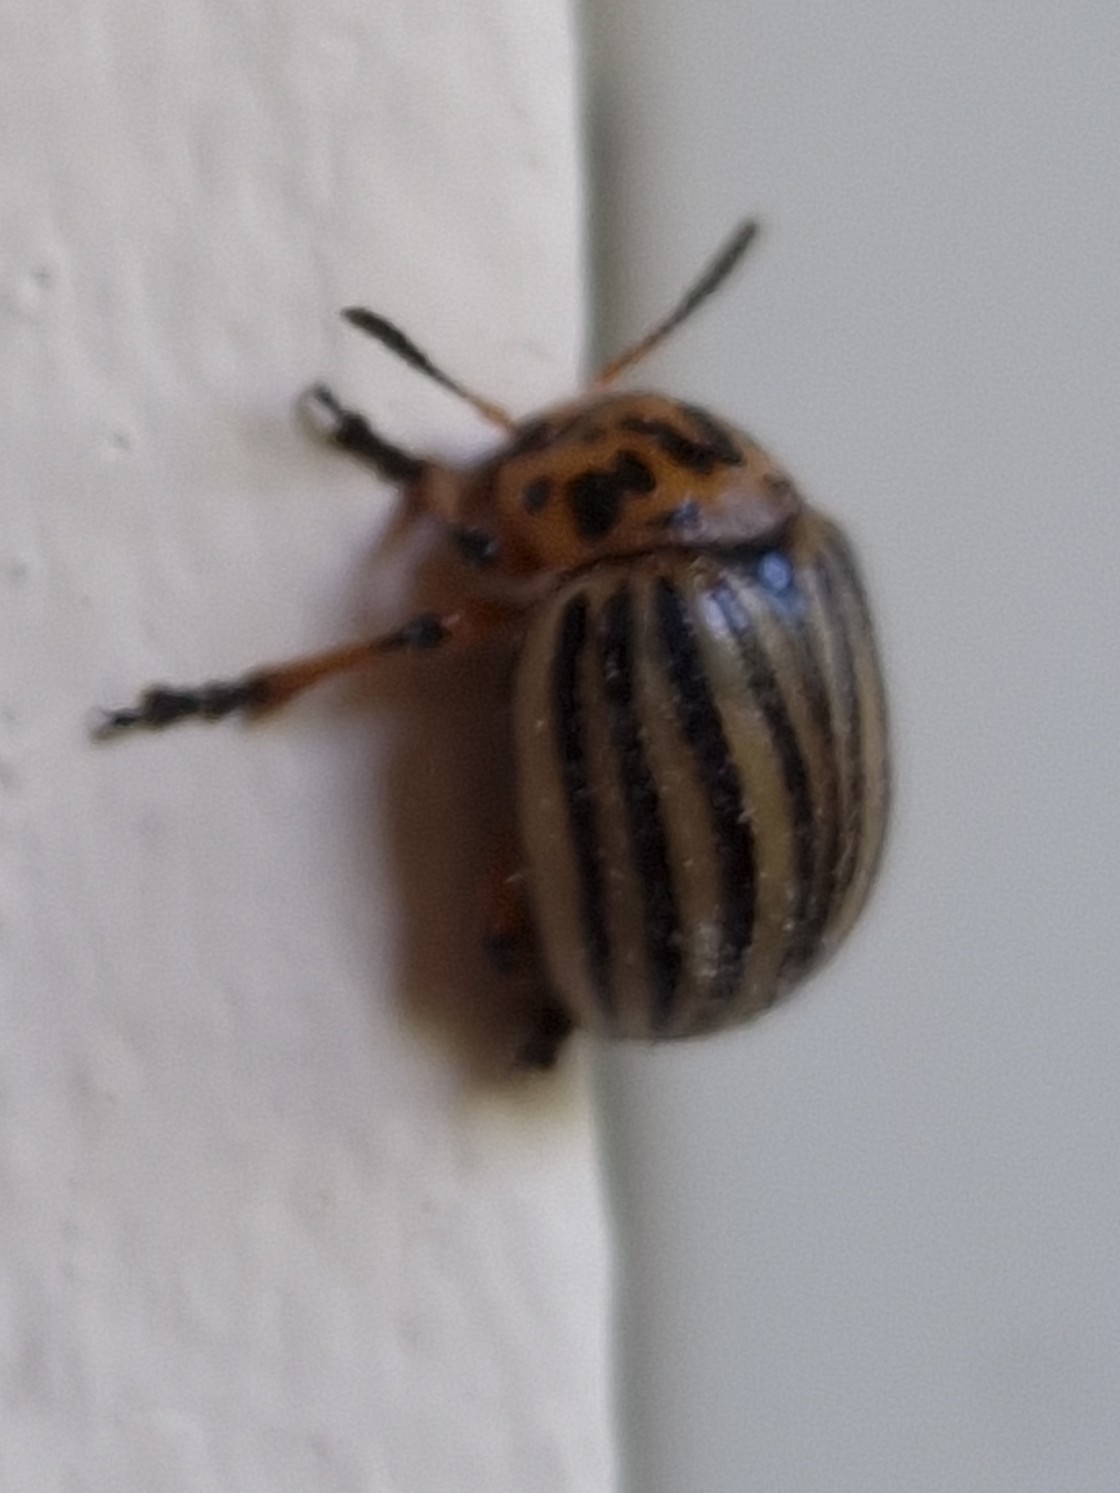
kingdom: Animalia
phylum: Arthropoda
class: Insecta
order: Coleoptera
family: Chrysomelidae
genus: Leptinotarsa
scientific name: Leptinotarsa decemlineata
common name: Colorado potato beetle
